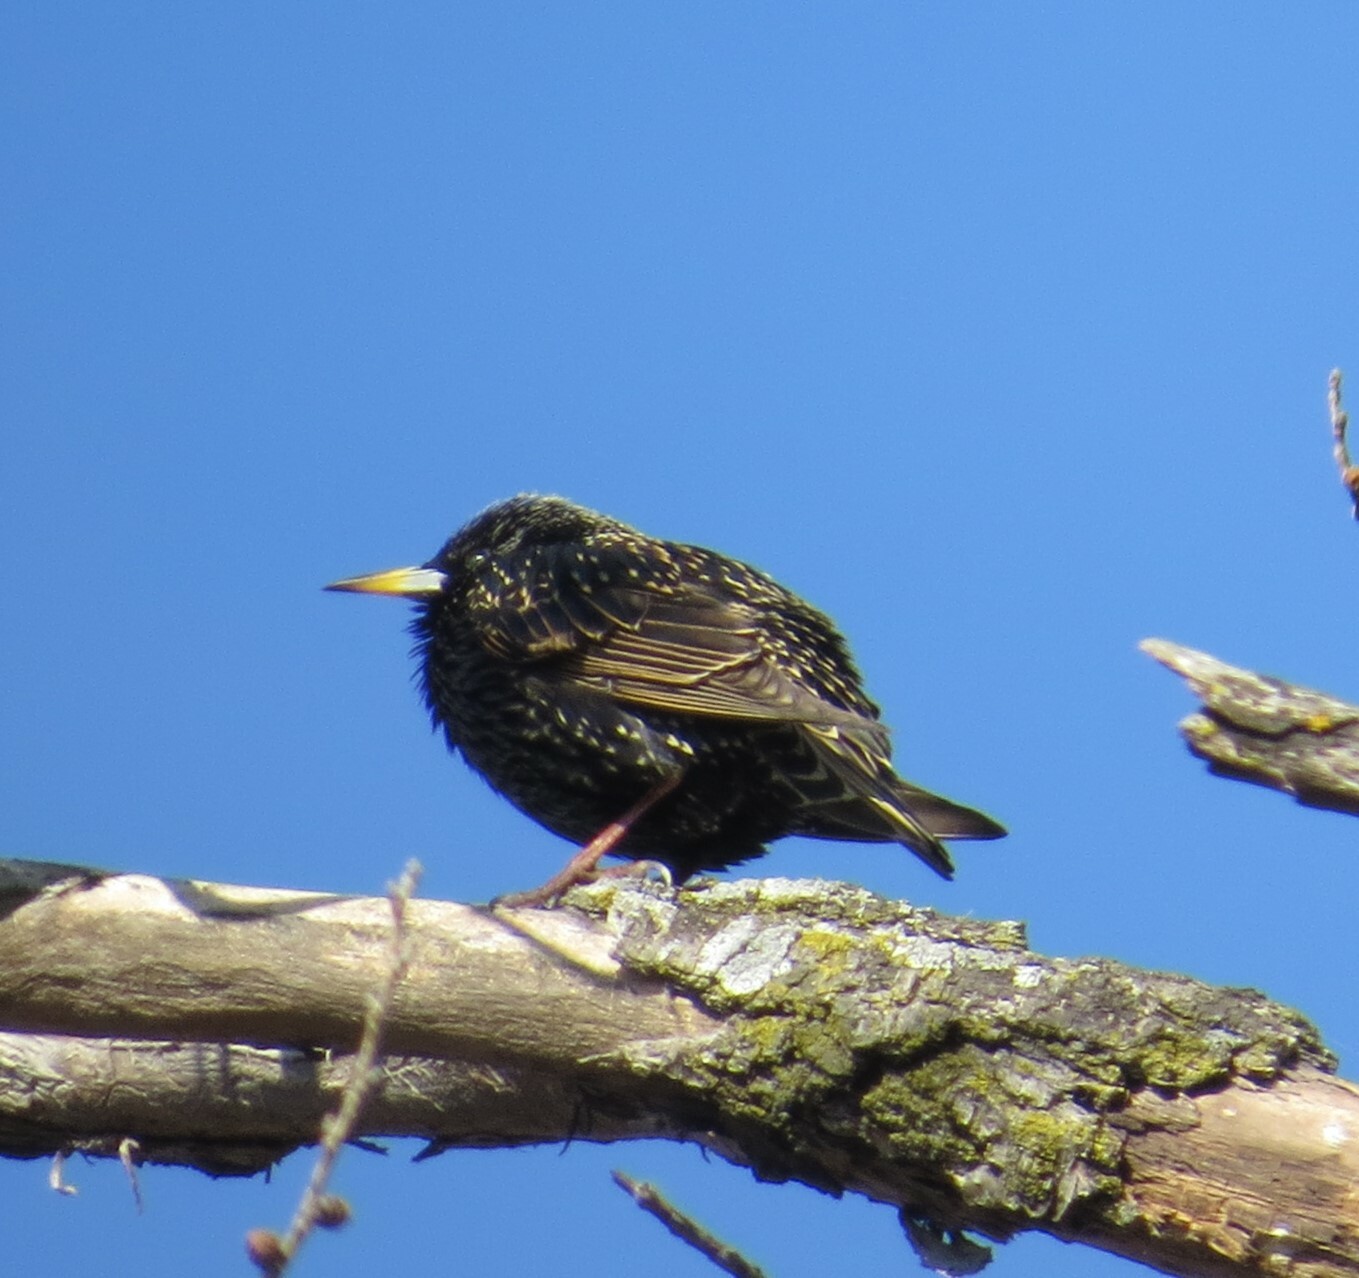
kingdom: Animalia
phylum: Chordata
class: Aves
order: Passeriformes
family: Sturnidae
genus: Sturnus
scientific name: Sturnus vulgaris
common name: Common starling
